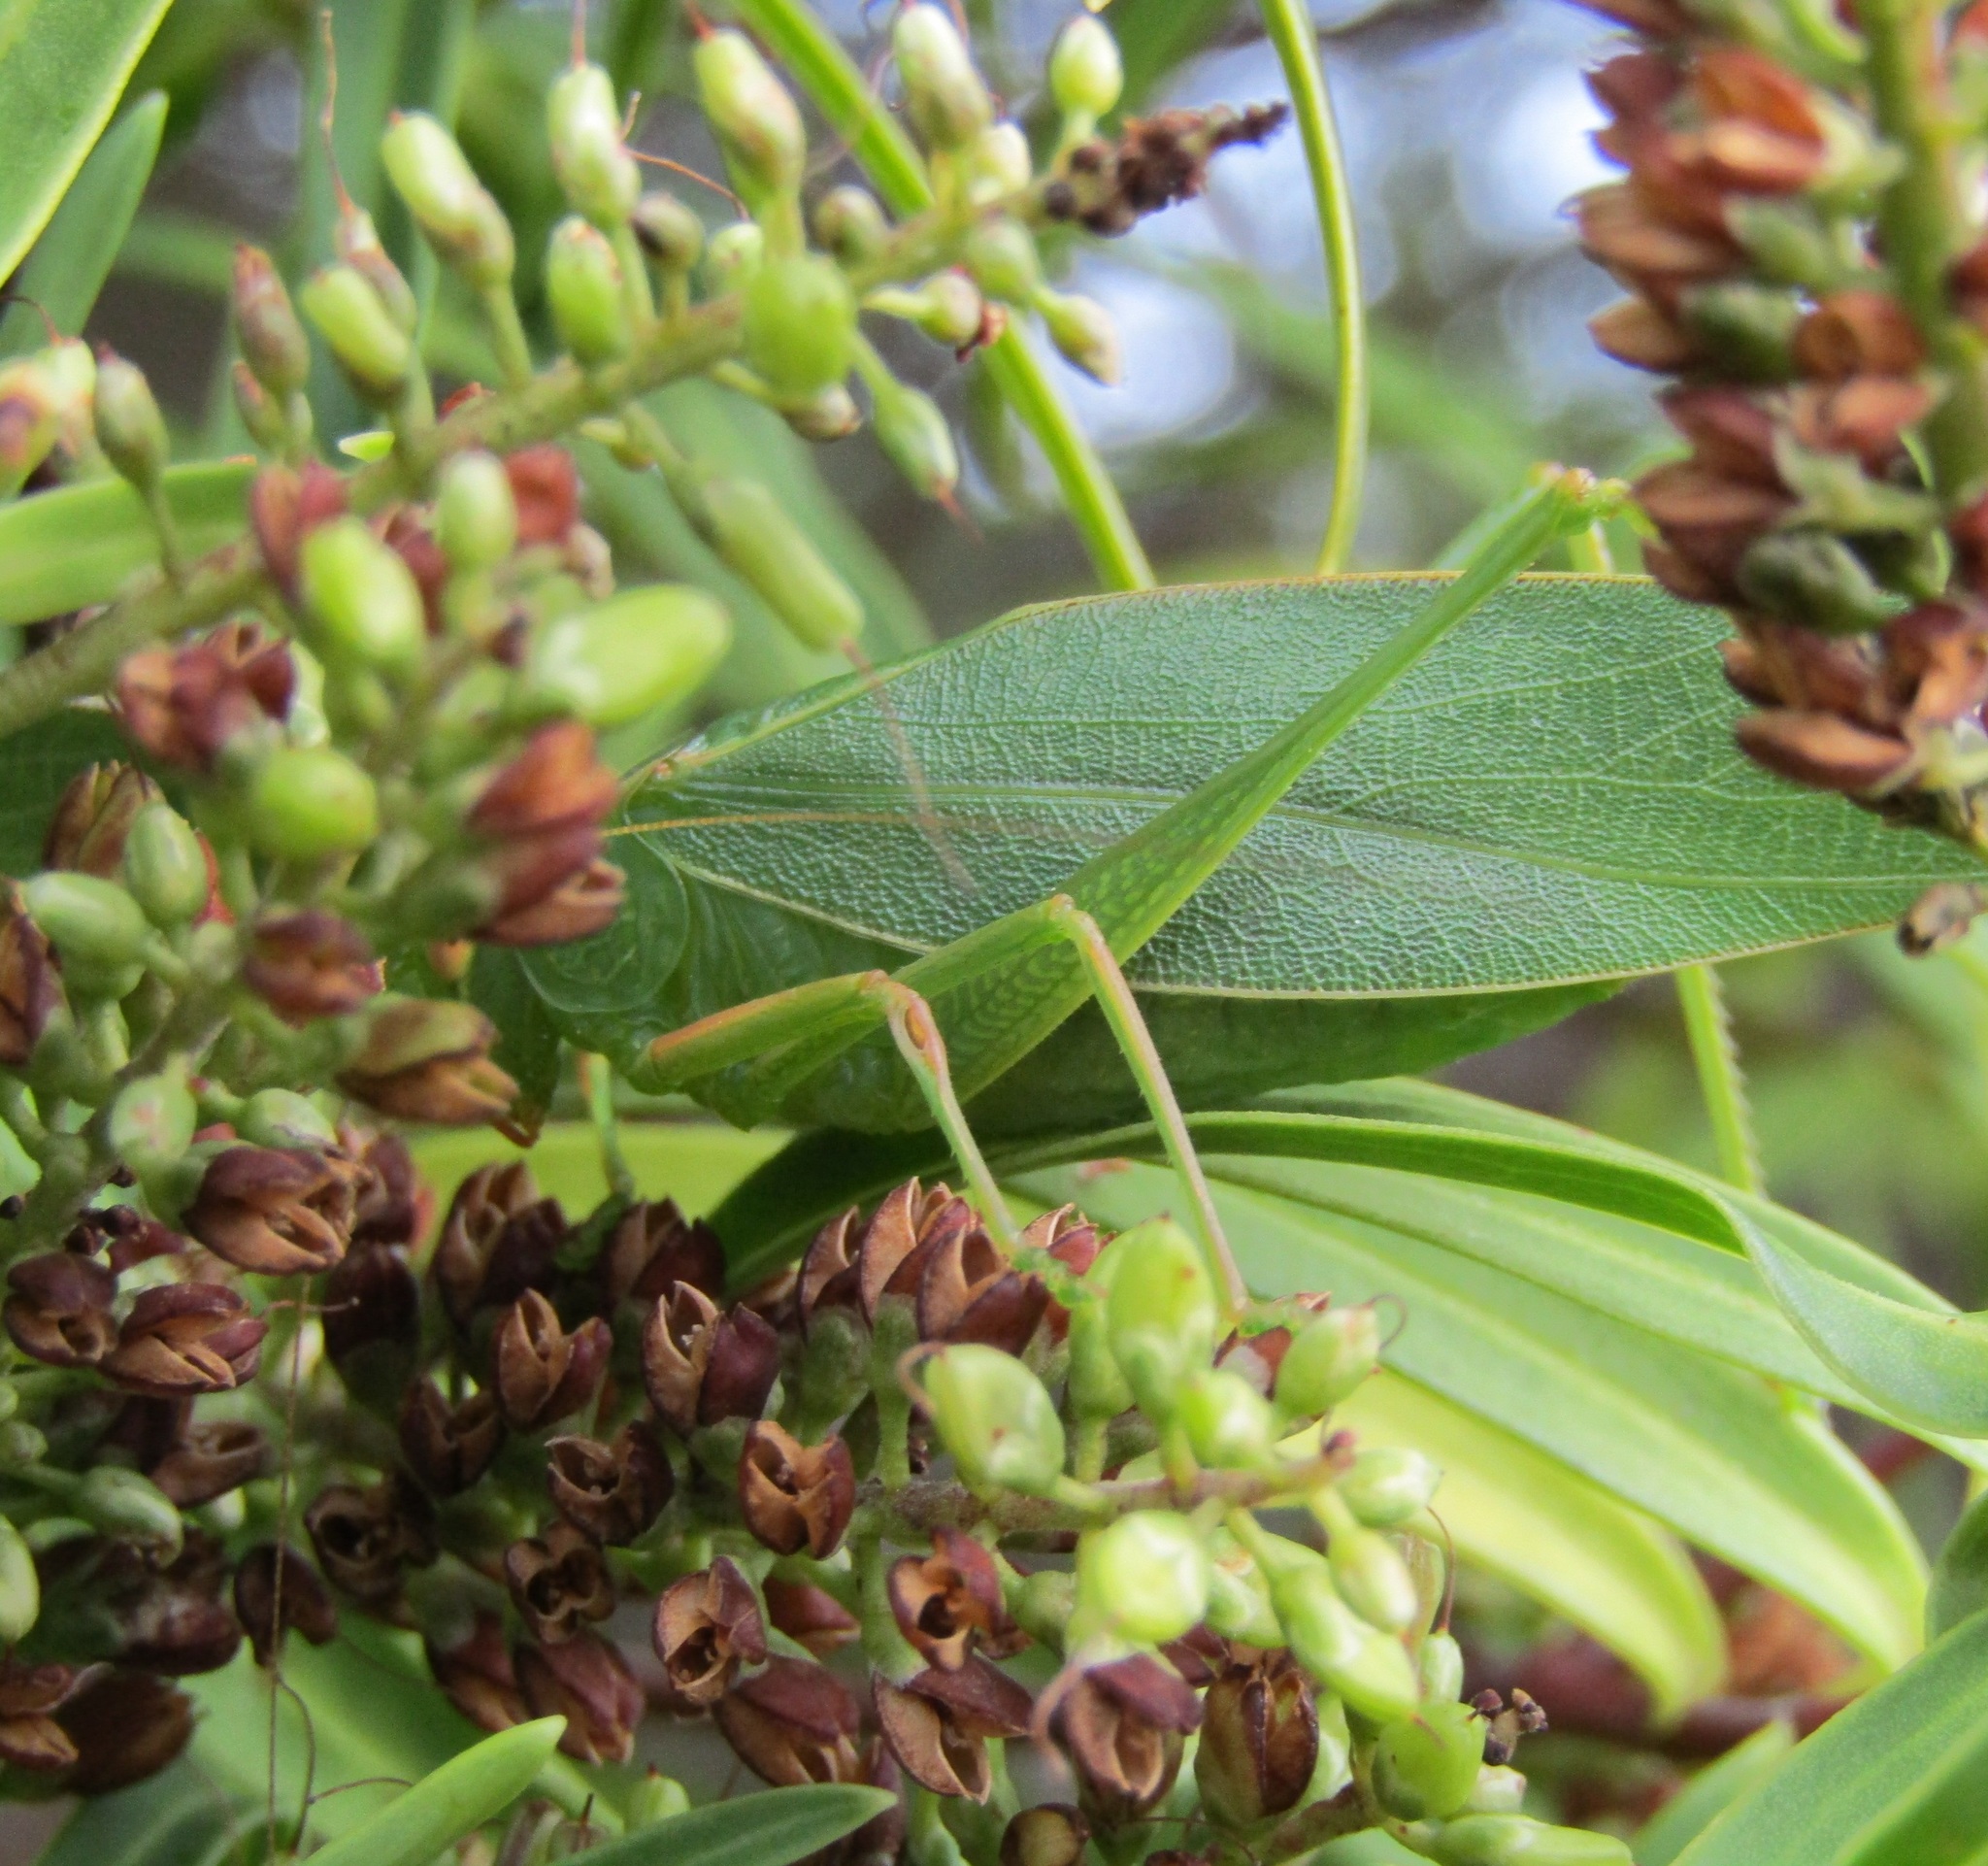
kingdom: Animalia
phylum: Arthropoda
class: Insecta
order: Orthoptera
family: Tettigoniidae
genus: Caedicia
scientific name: Caedicia simplex
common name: Common garden katydid
